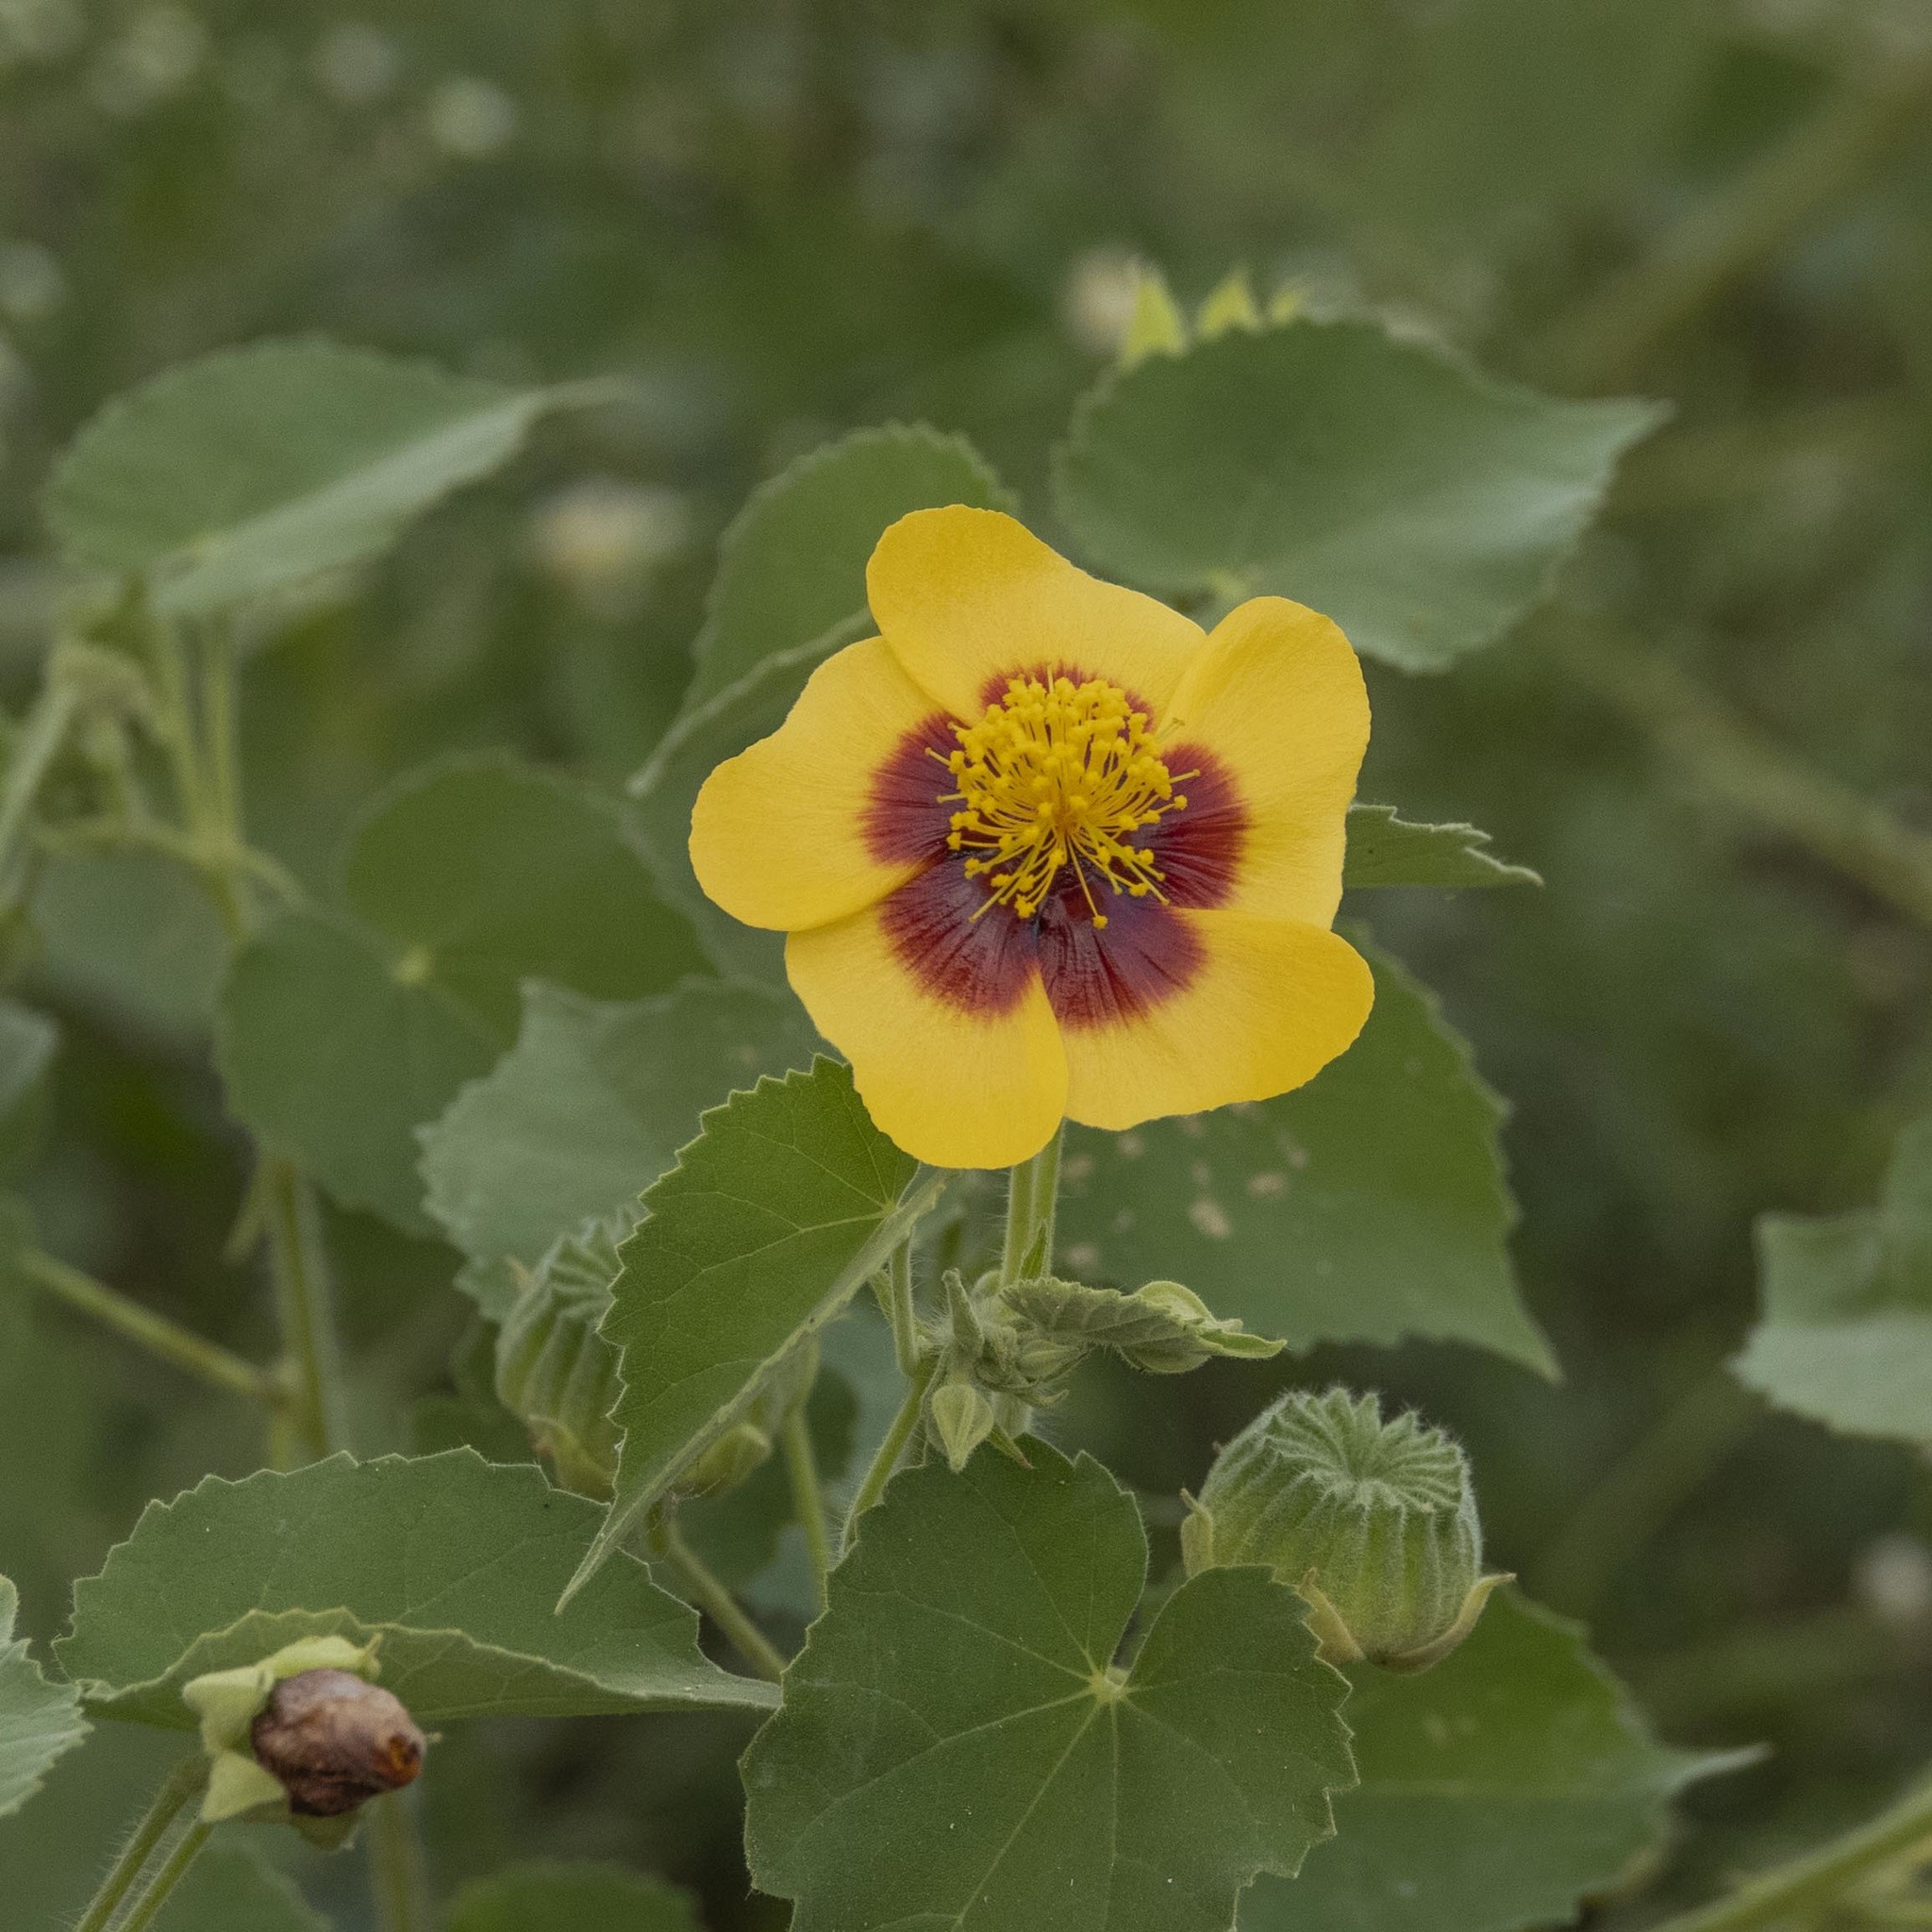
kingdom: Plantae
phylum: Tracheophyta
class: Magnoliopsida
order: Malvales
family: Malvaceae
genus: Abutilon
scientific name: Abutilon hirtum
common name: Florida keys indian mallow
